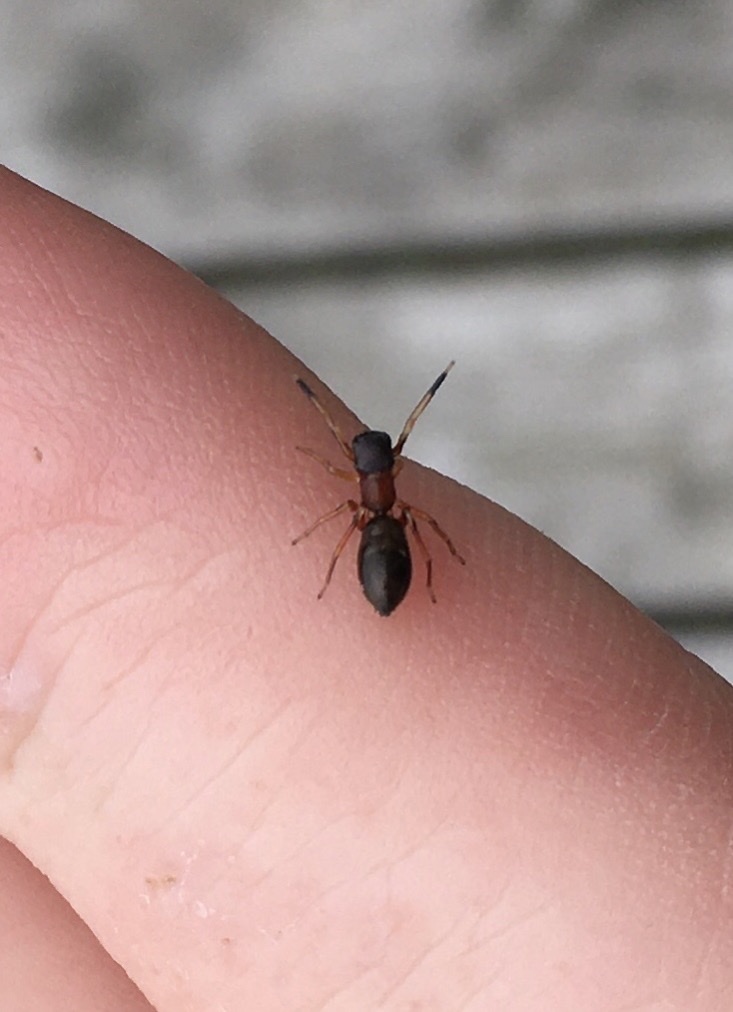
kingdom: Animalia
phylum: Arthropoda
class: Arachnida
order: Araneae
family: Salticidae
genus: Myrmarachne
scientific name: Myrmarachne formicaria
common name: Ant mimic jumping spider
